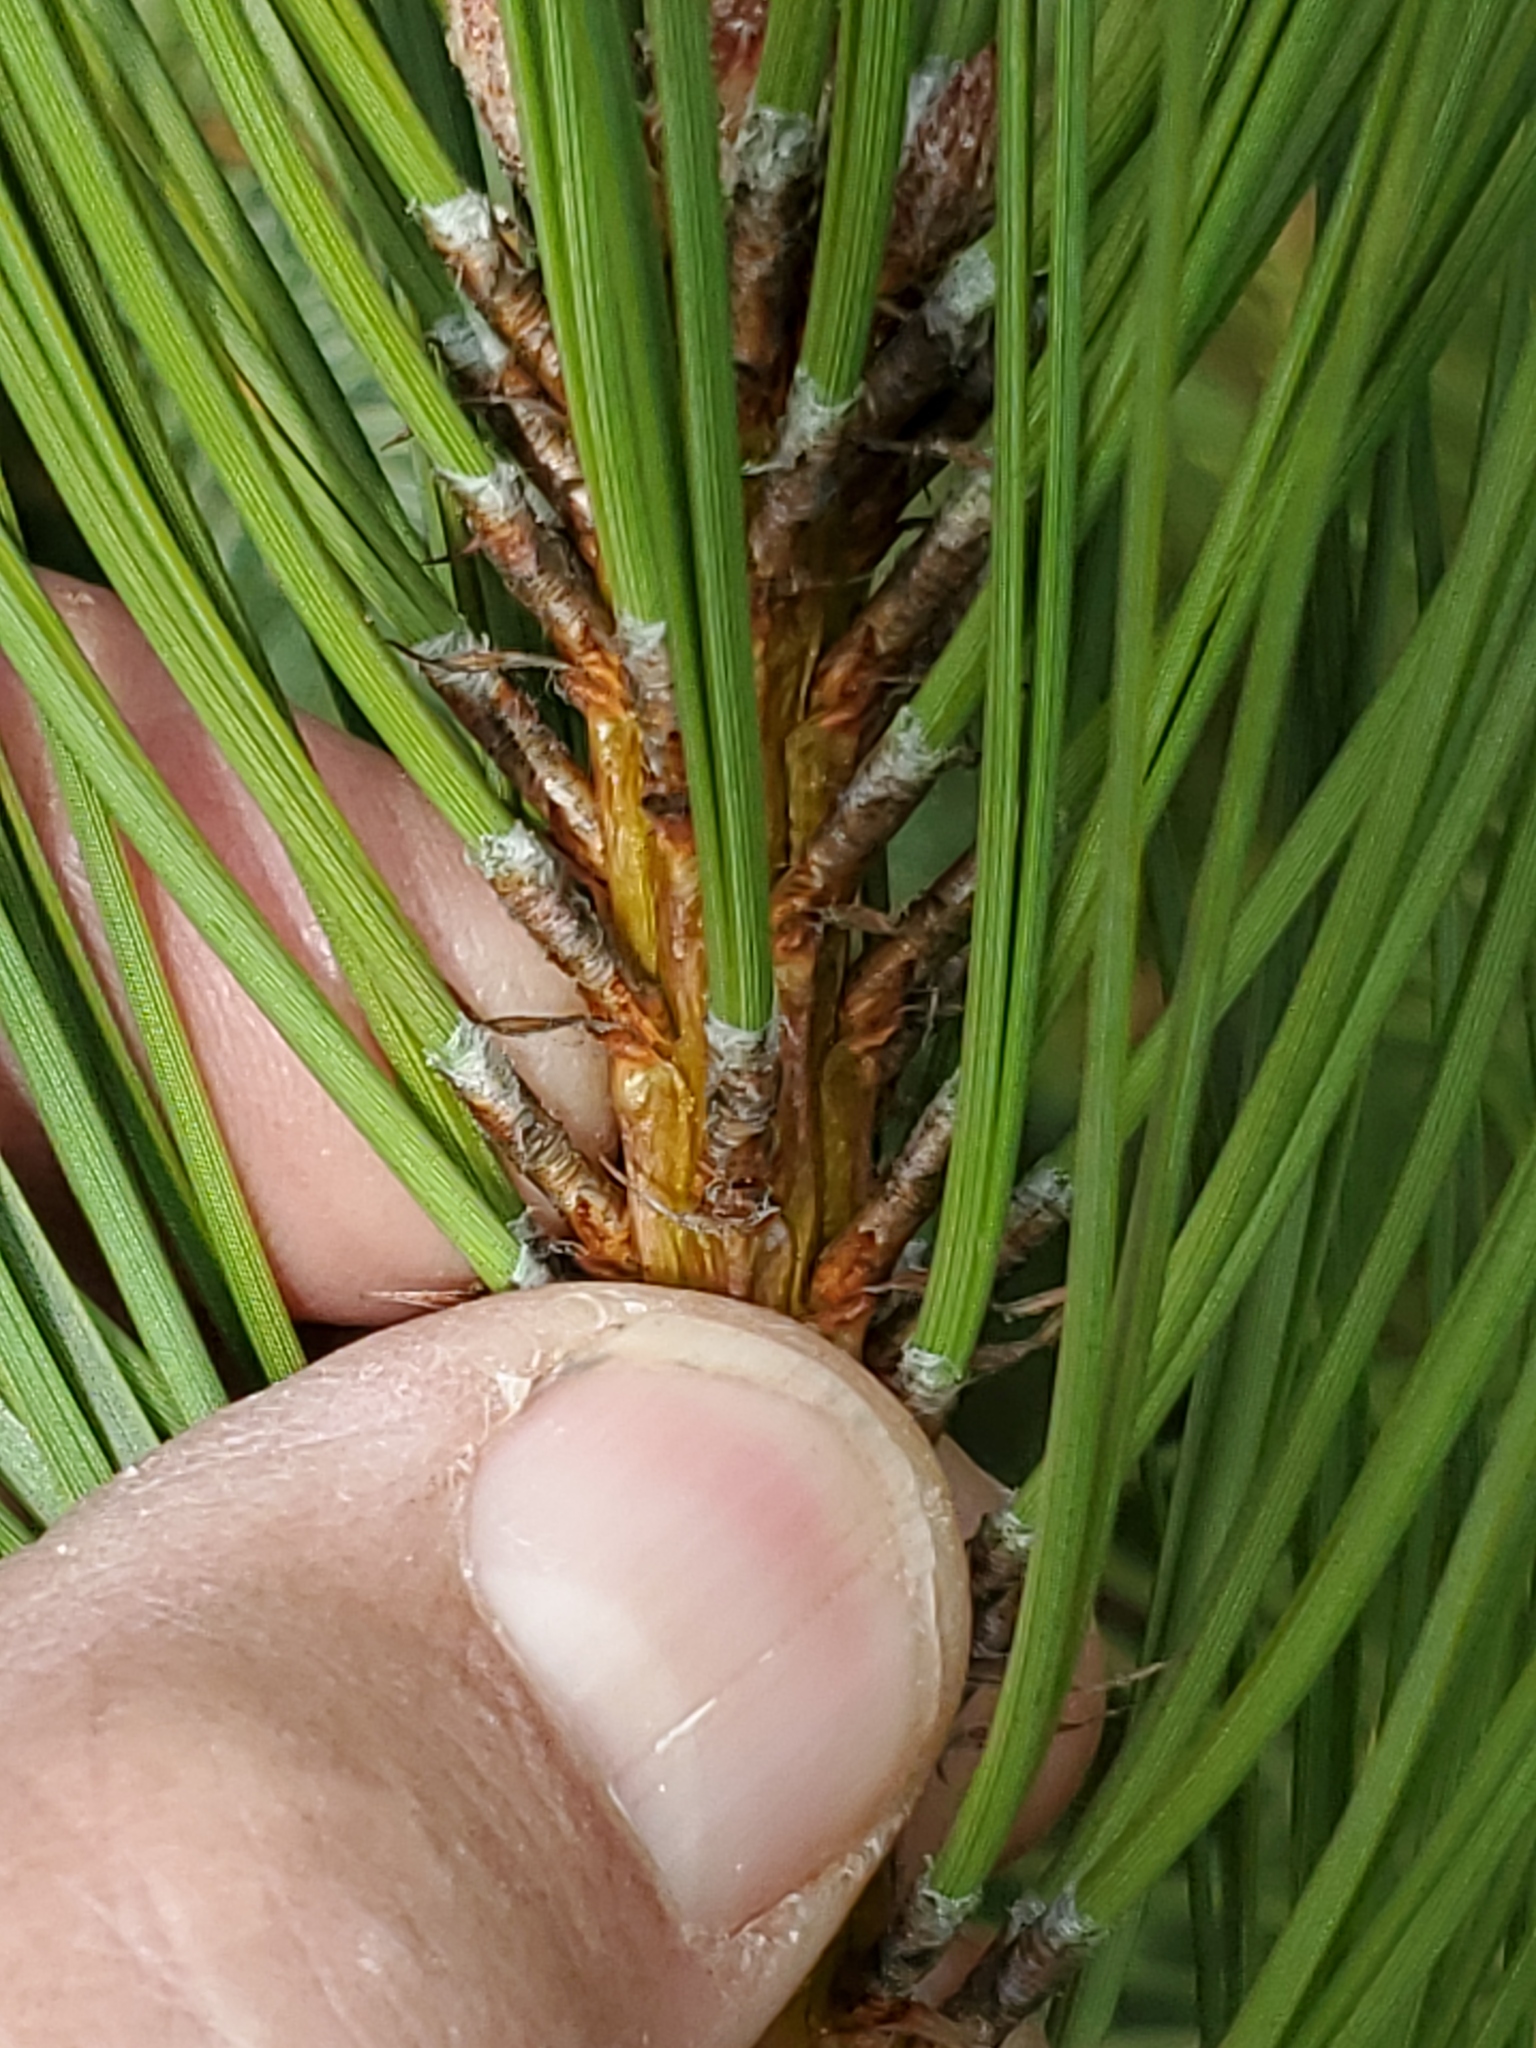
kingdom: Plantae
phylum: Tracheophyta
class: Pinopsida
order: Pinales
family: Pinaceae
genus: Pinus
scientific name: Pinus contorta
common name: Lodgepole pine
